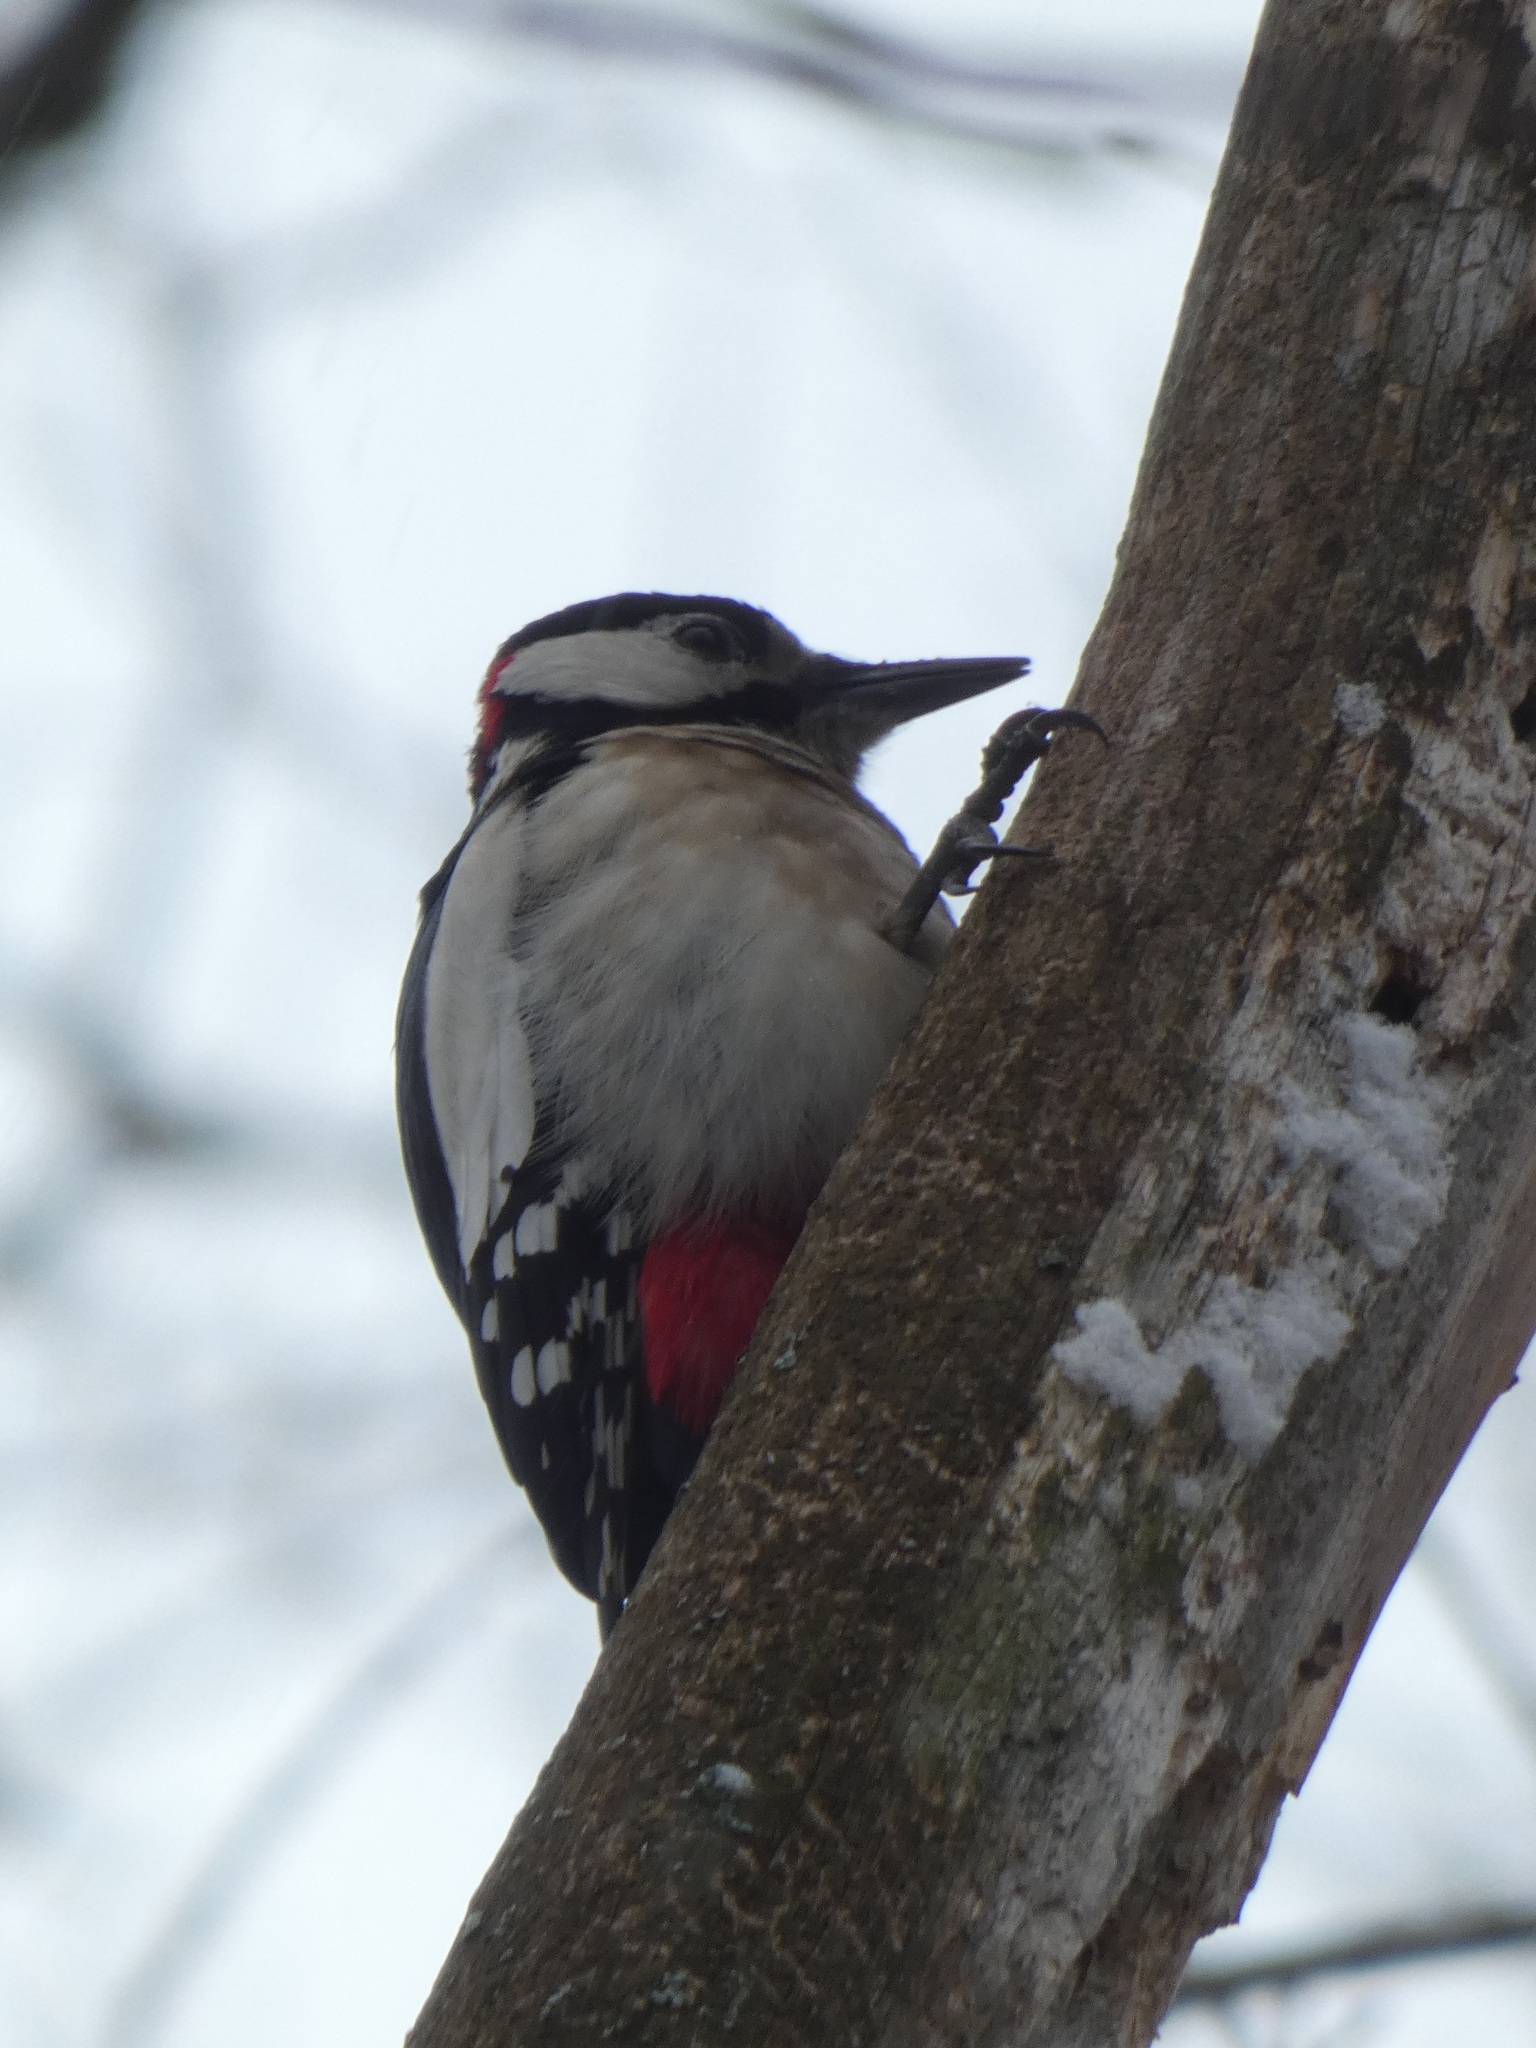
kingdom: Animalia
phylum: Chordata
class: Aves
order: Piciformes
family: Picidae
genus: Dendrocopos
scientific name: Dendrocopos major
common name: Great spotted woodpecker
